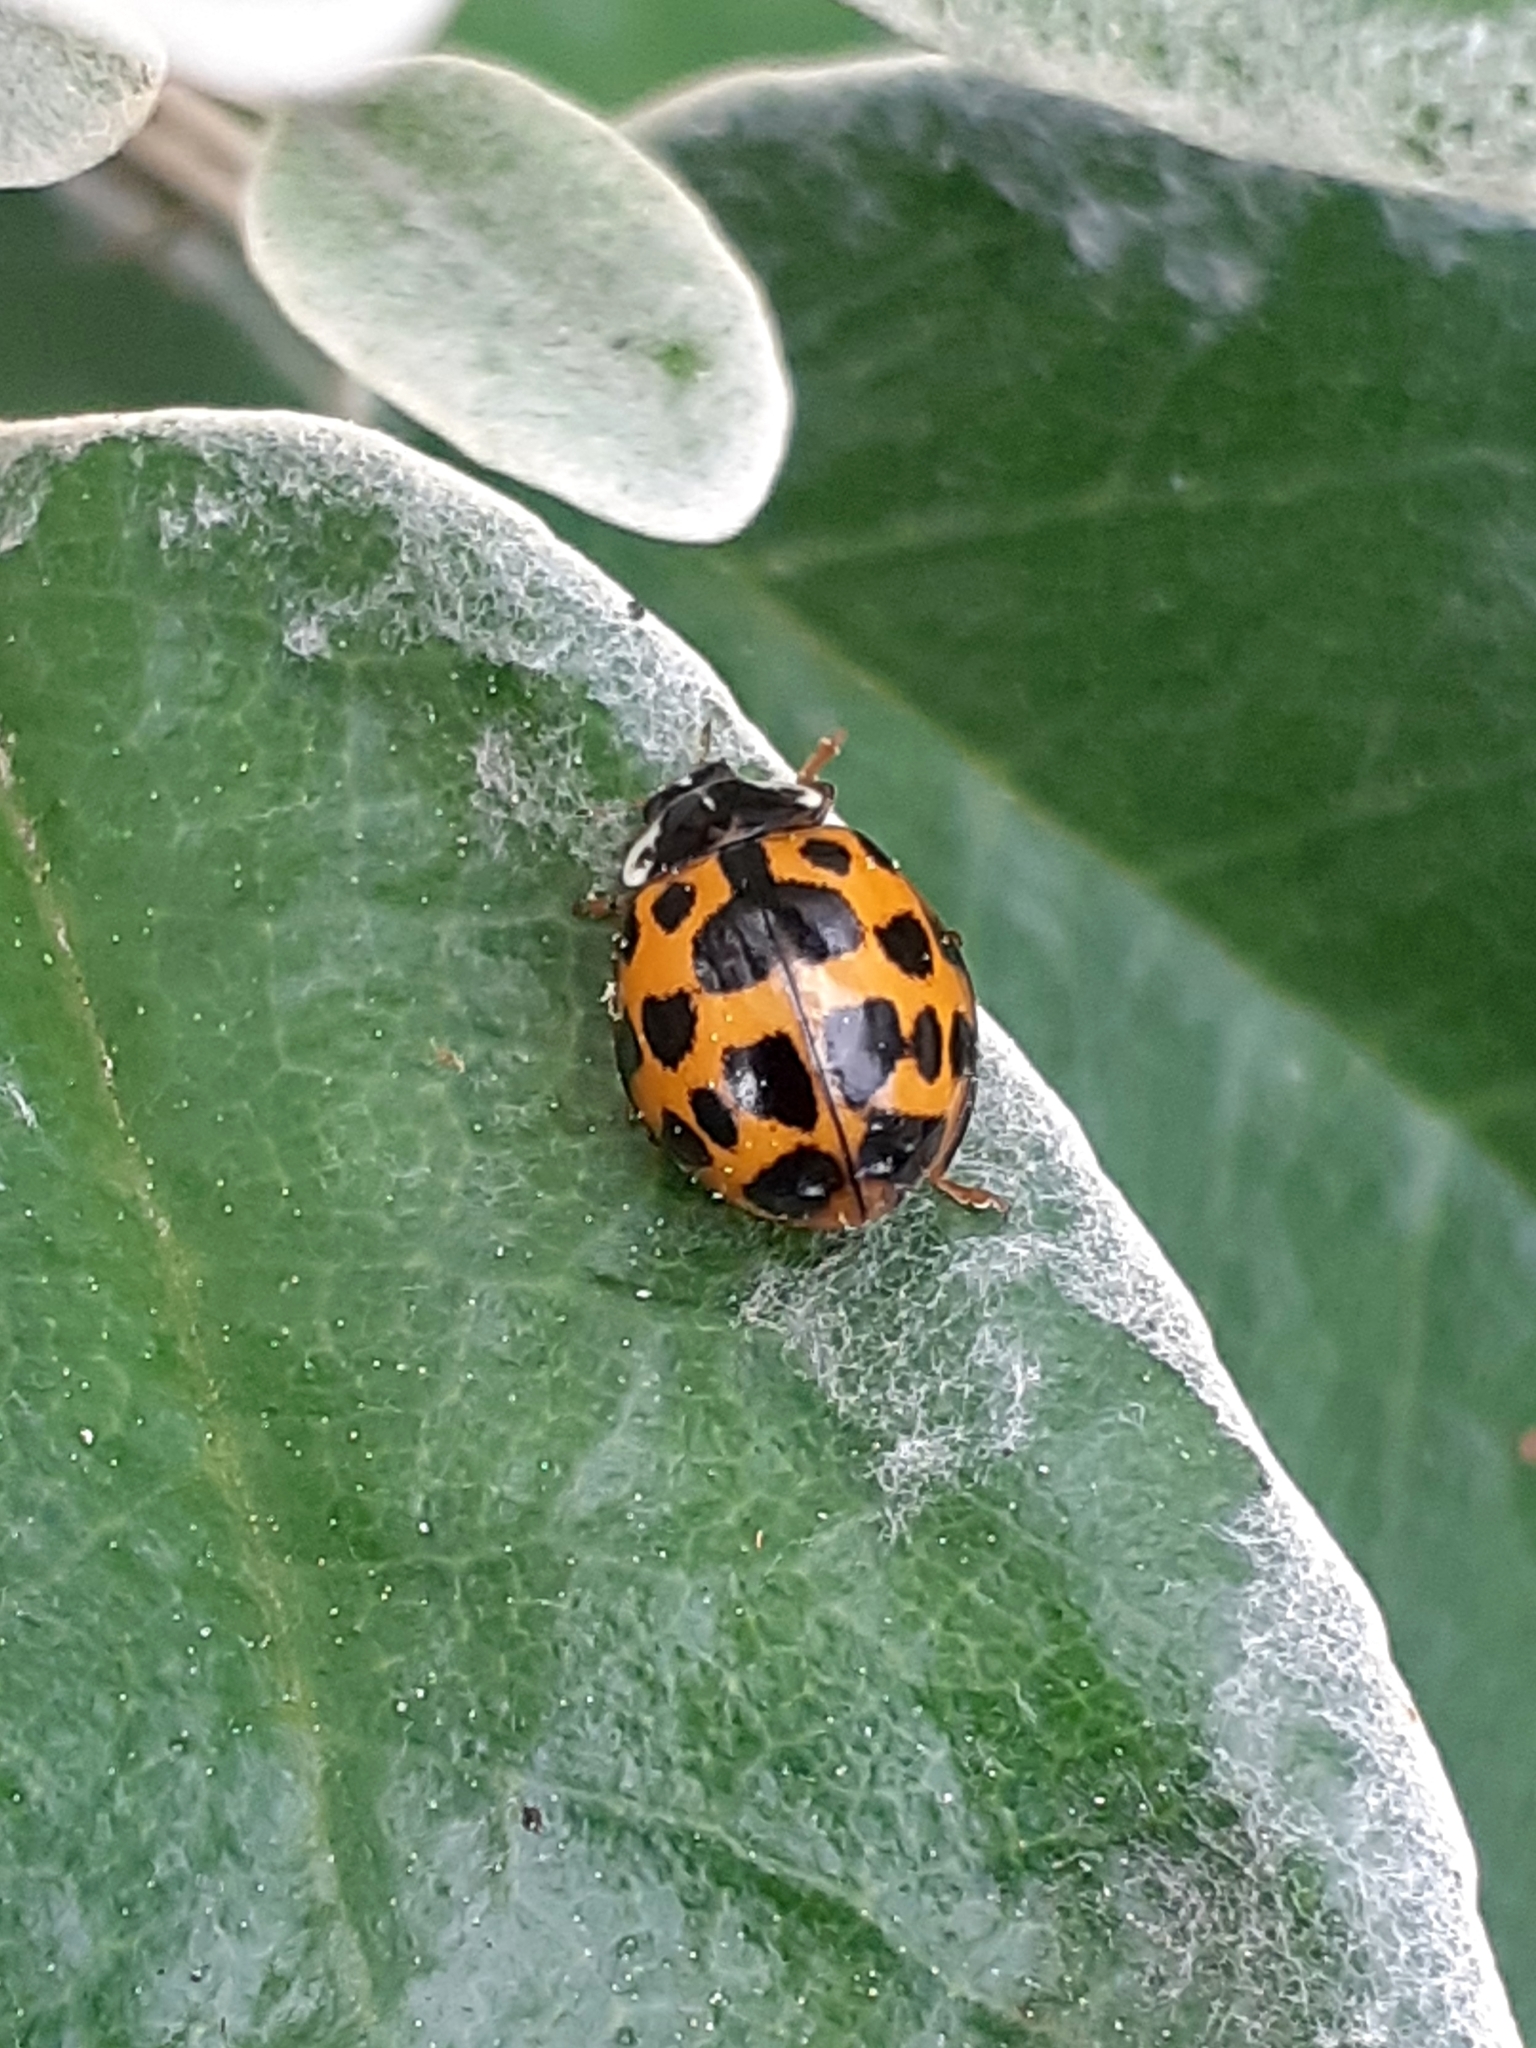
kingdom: Animalia
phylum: Arthropoda
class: Insecta
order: Coleoptera
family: Coccinellidae
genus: Harmonia
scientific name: Harmonia axyridis
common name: Harlequin ladybird
